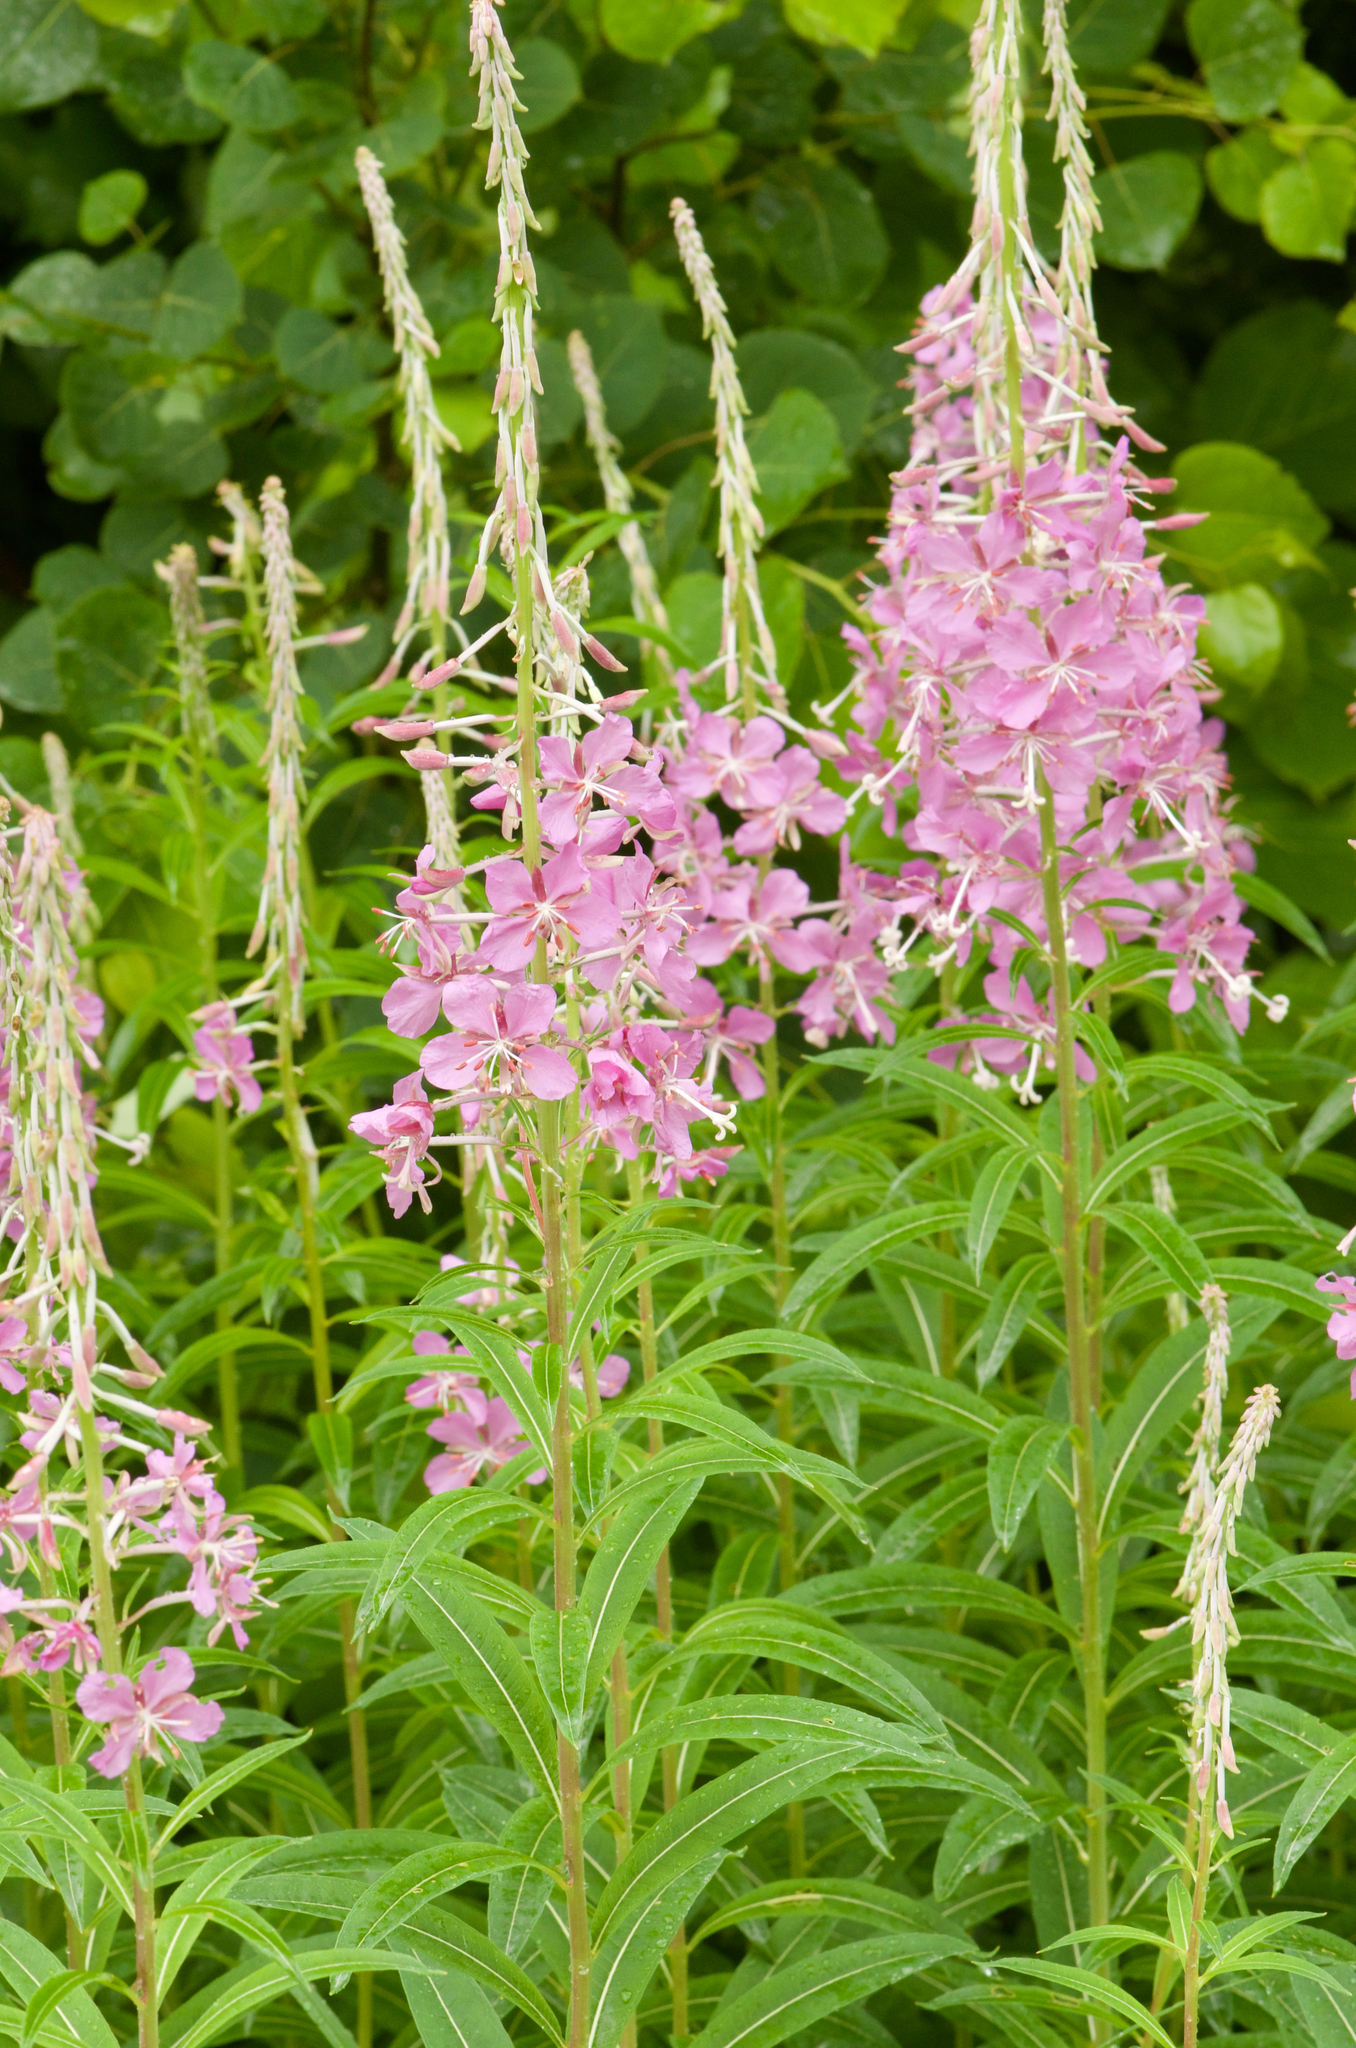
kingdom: Plantae
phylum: Tracheophyta
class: Magnoliopsida
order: Myrtales
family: Onagraceae
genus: Chamaenerion
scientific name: Chamaenerion angustifolium
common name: Fireweed
